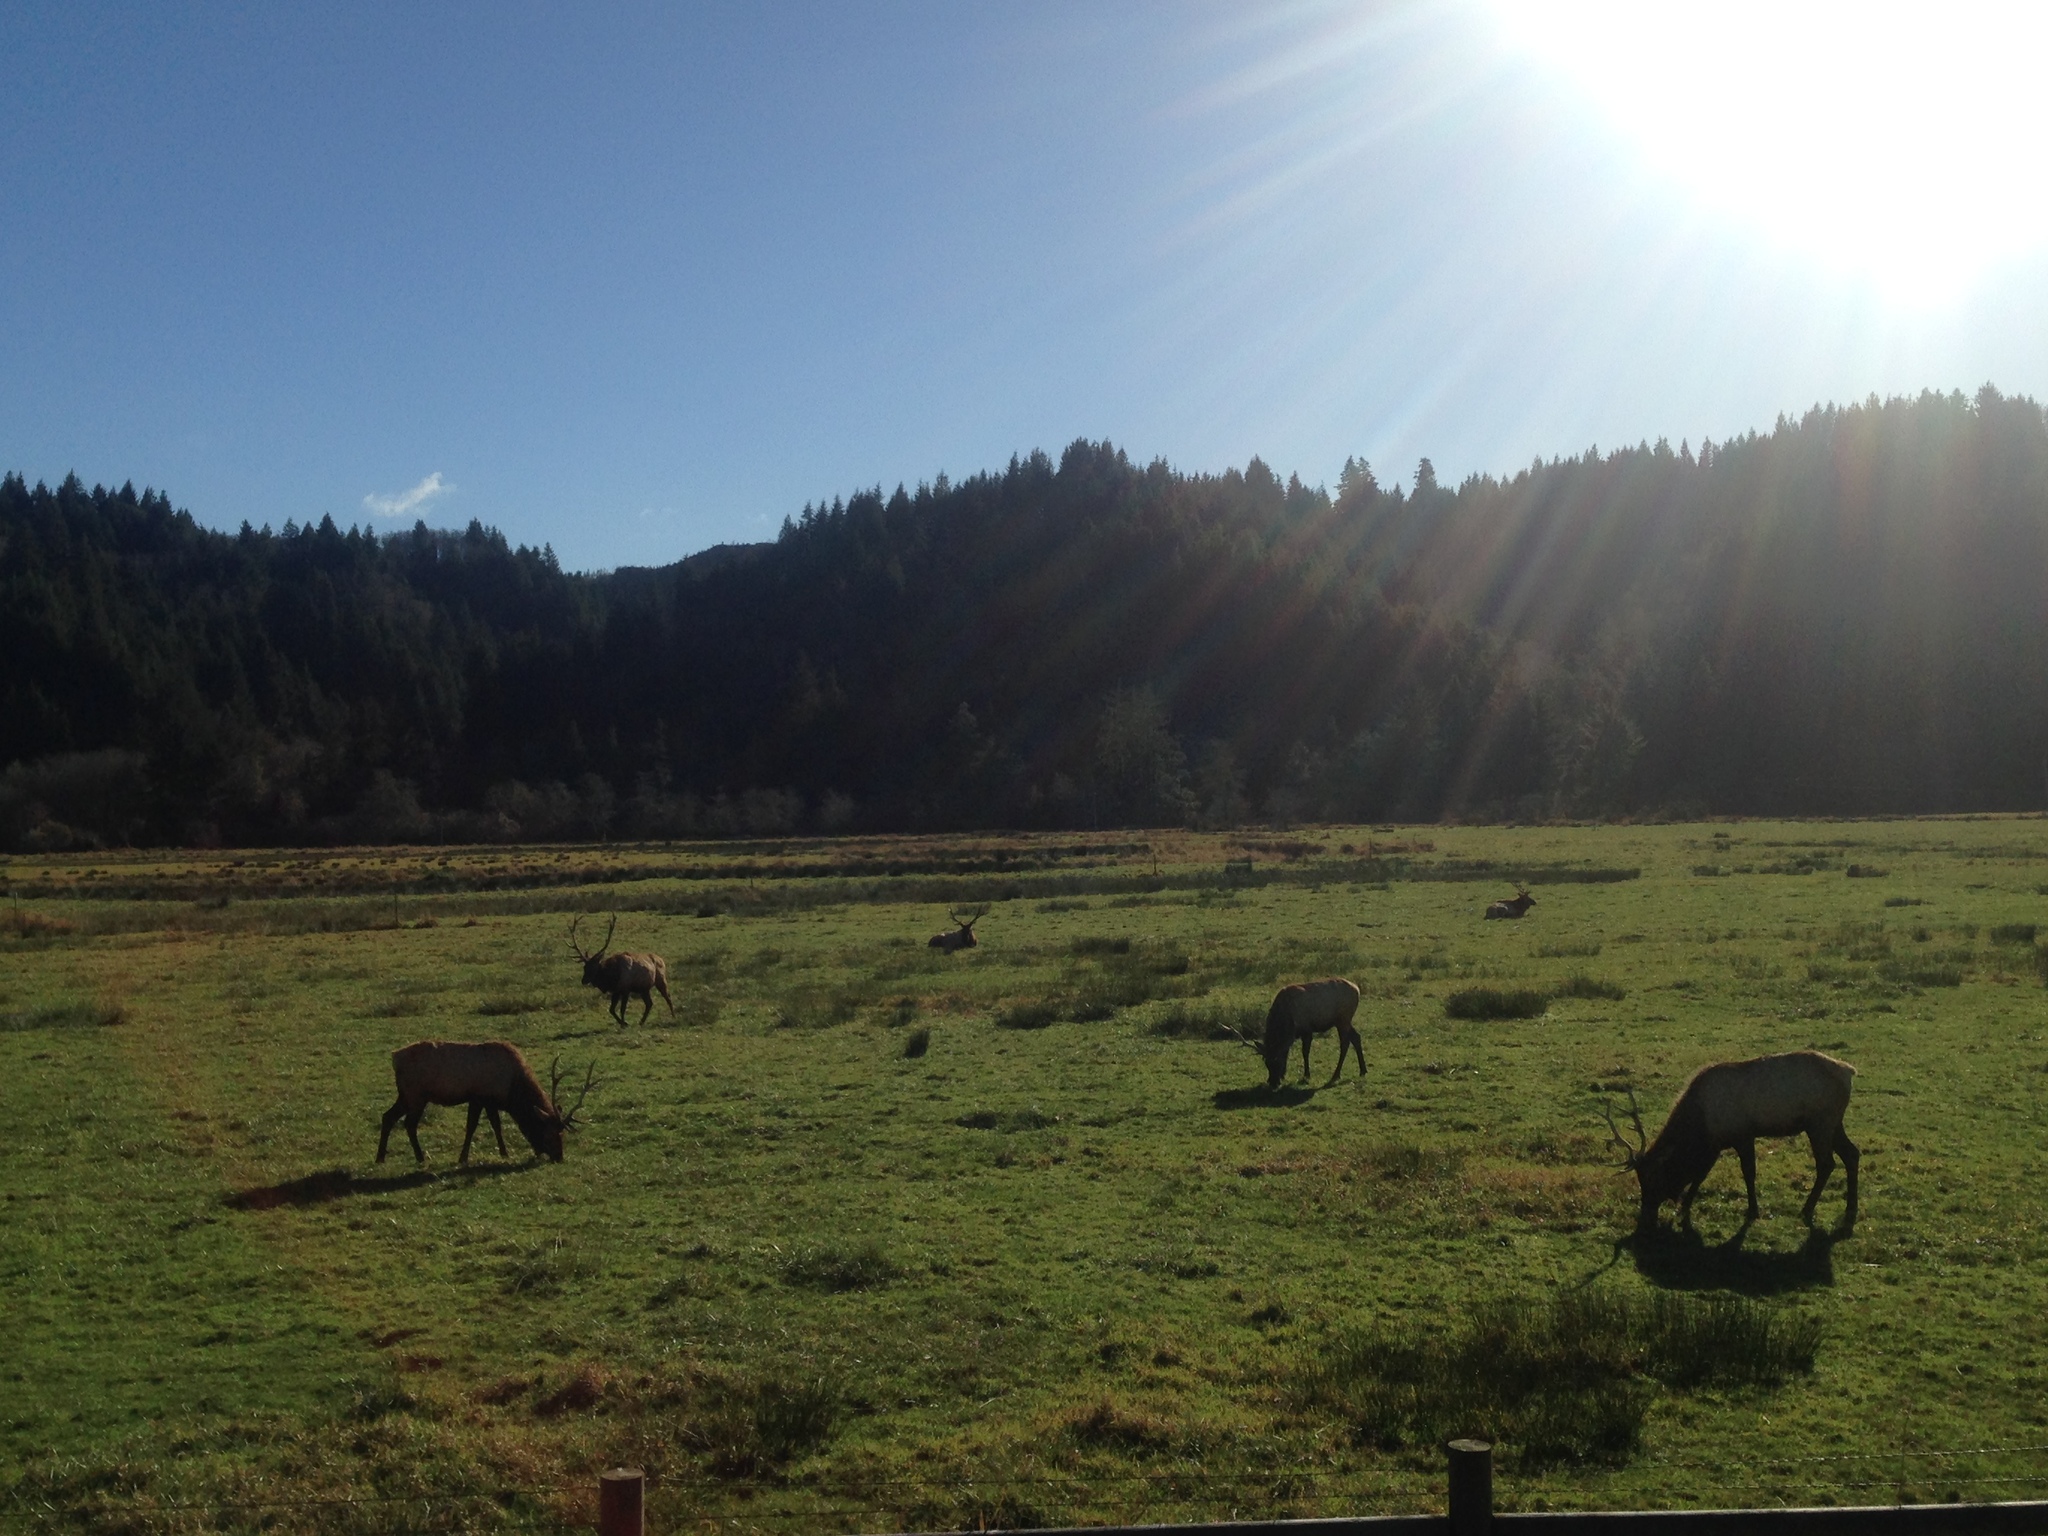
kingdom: Animalia
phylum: Chordata
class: Mammalia
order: Artiodactyla
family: Cervidae
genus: Cervus
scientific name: Cervus elaphus
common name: Red deer
